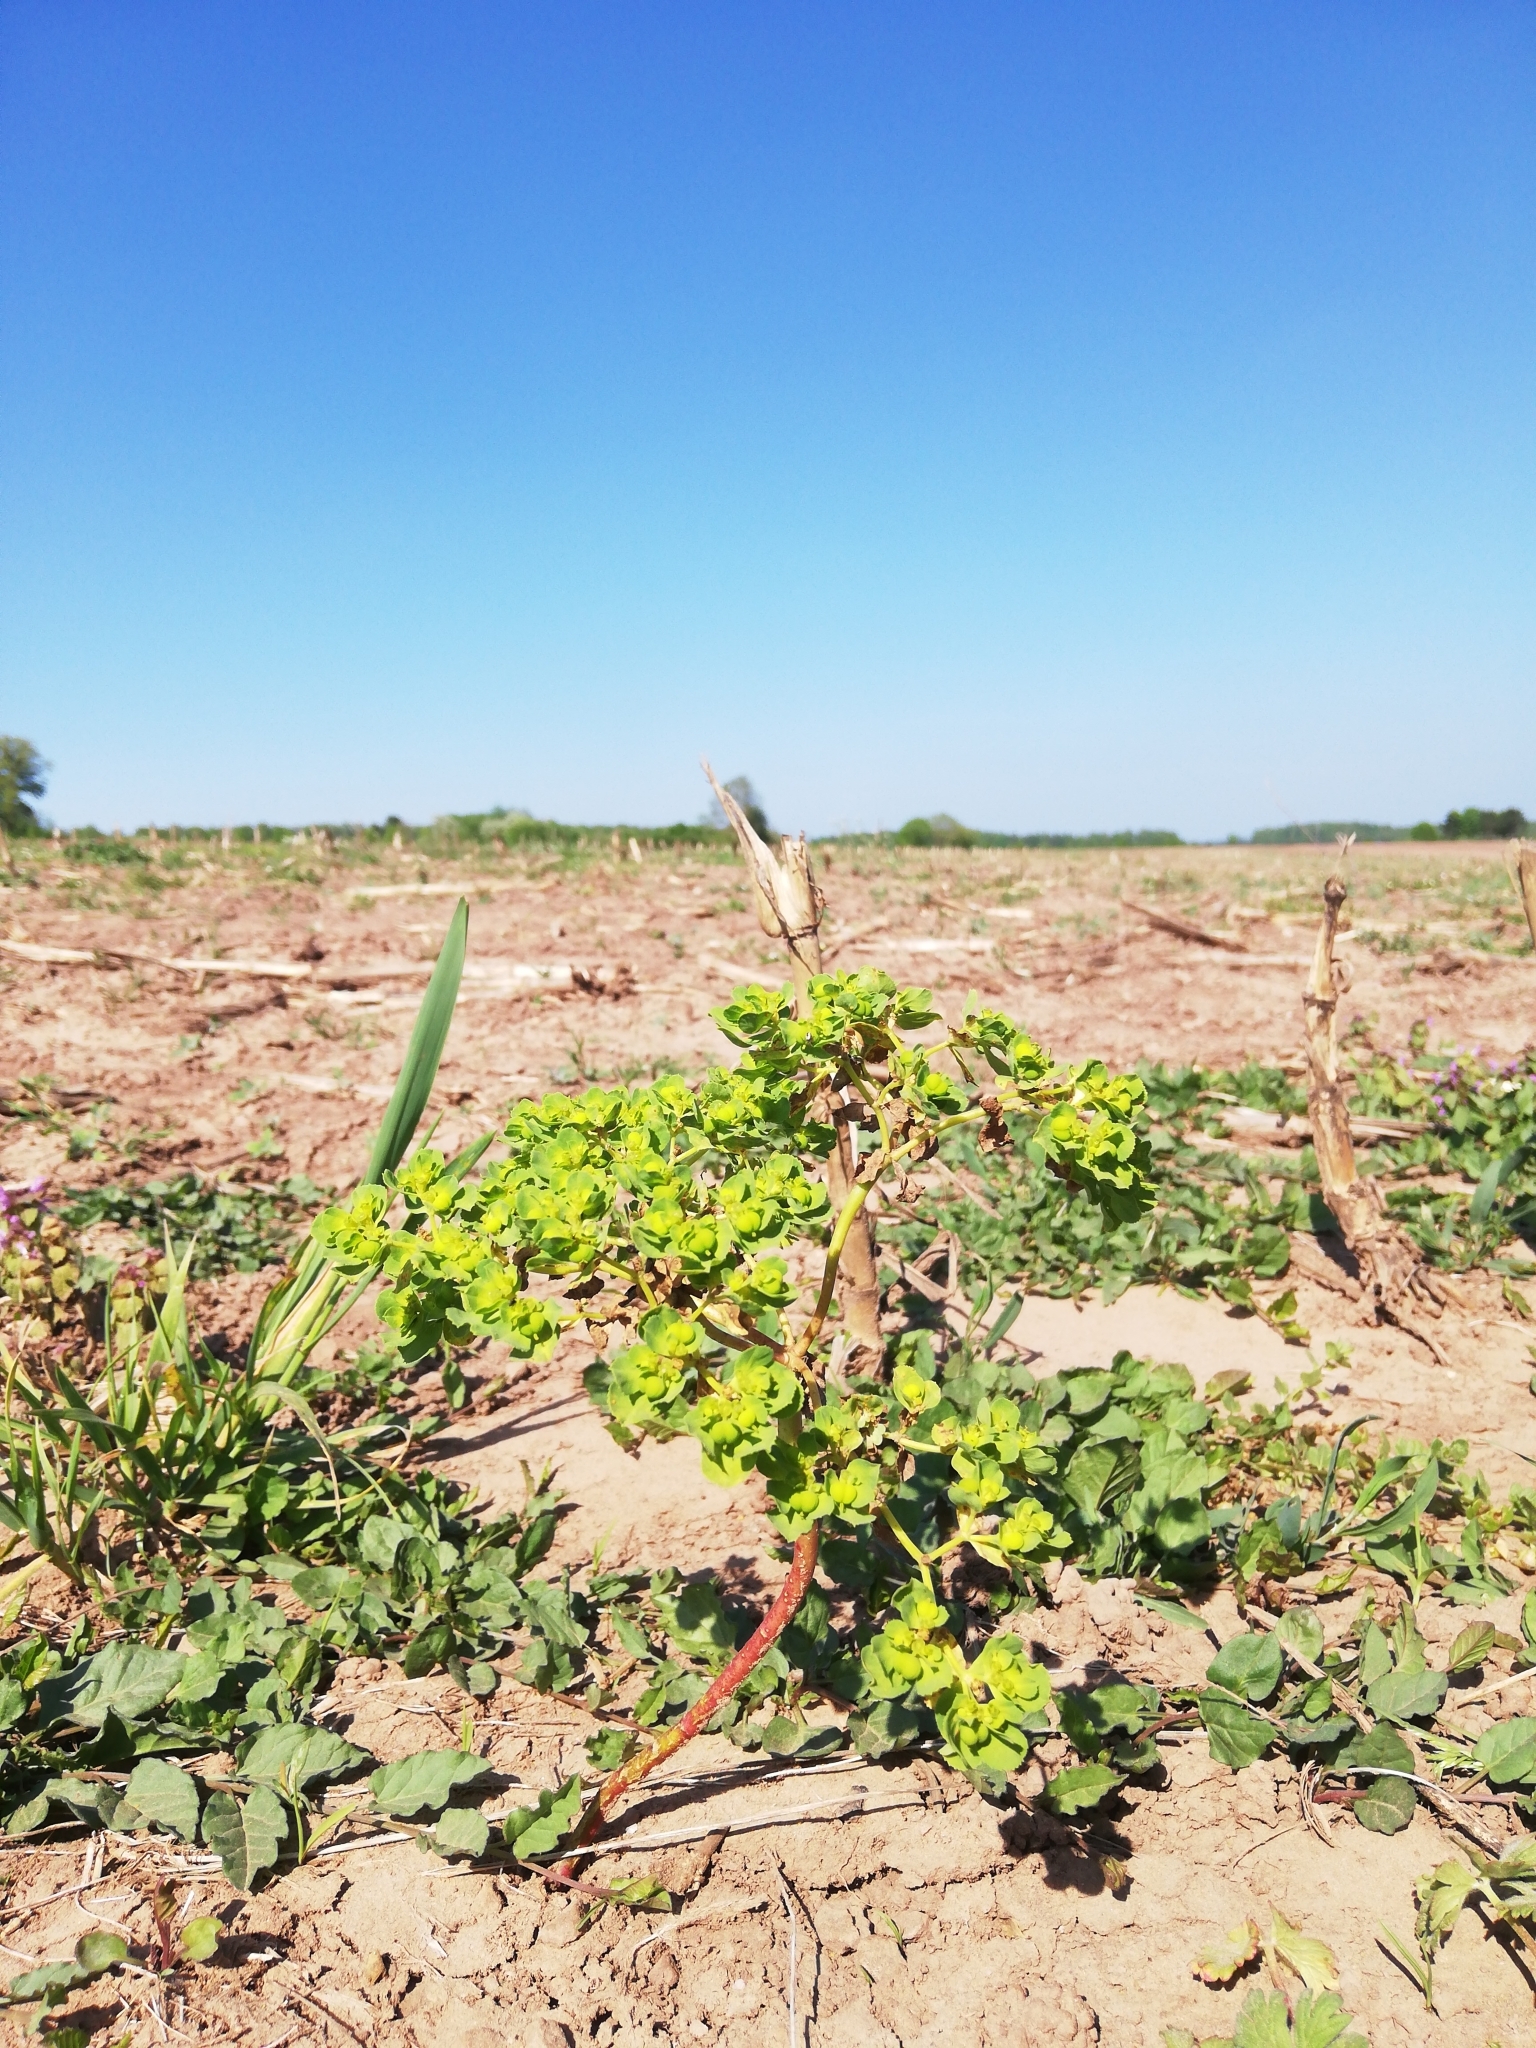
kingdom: Plantae
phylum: Tracheophyta
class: Magnoliopsida
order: Malpighiales
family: Euphorbiaceae
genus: Euphorbia
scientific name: Euphorbia helioscopia
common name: Sun spurge
